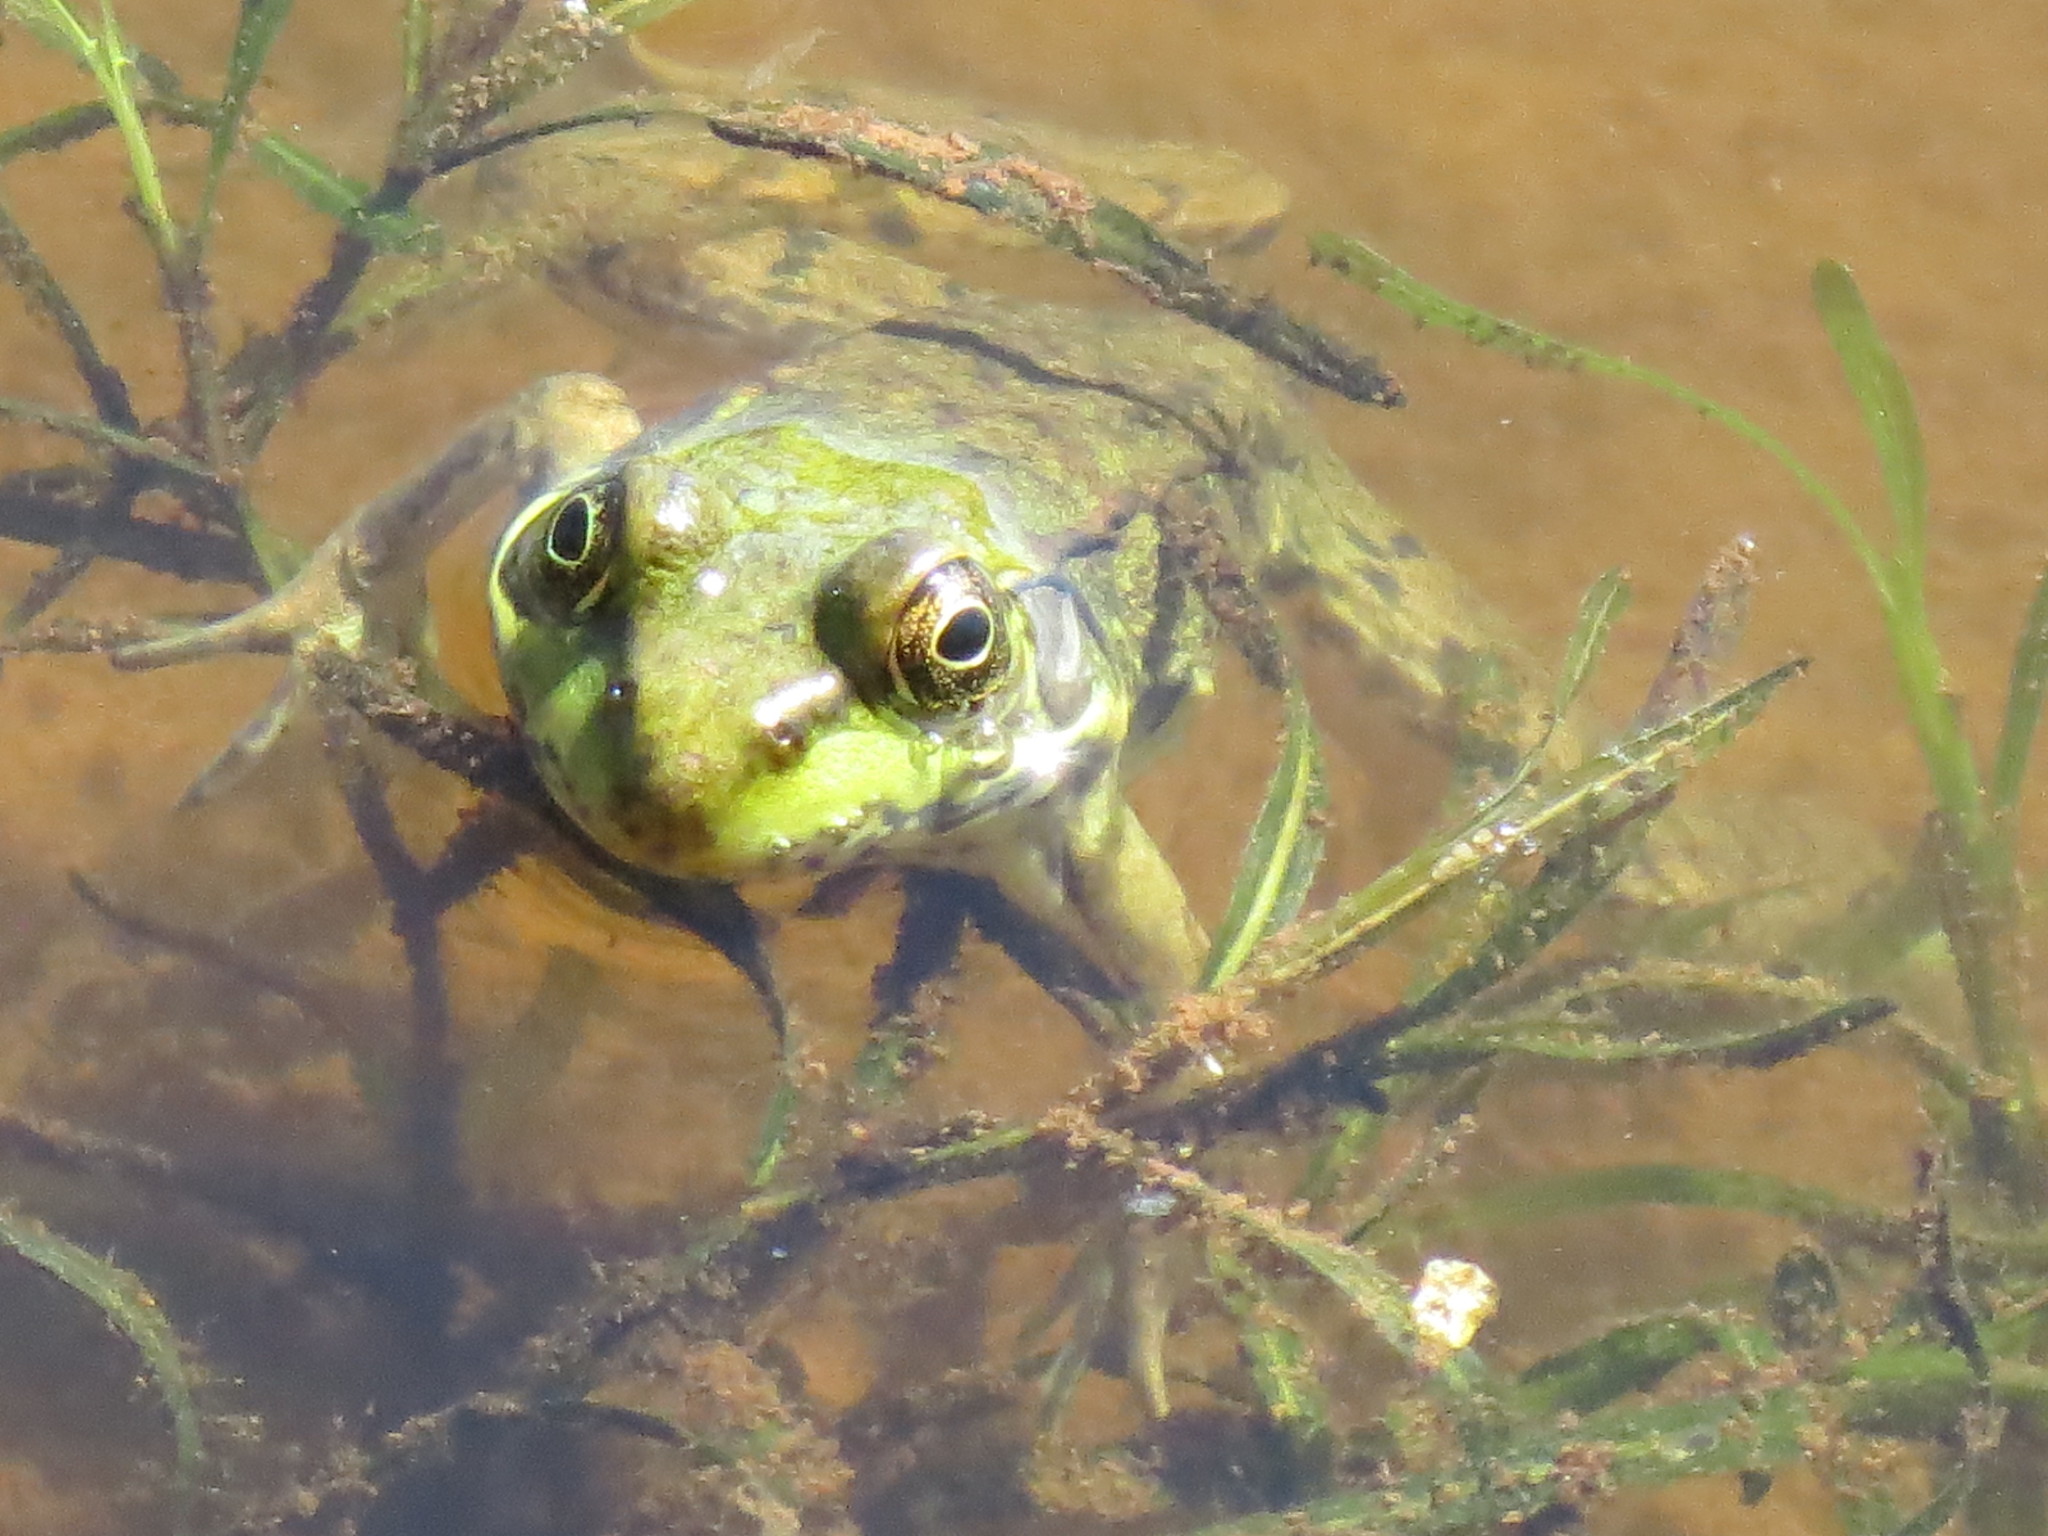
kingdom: Animalia
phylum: Chordata
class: Amphibia
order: Anura
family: Ranidae
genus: Lithobates
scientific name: Lithobates clamitans
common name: Green frog
